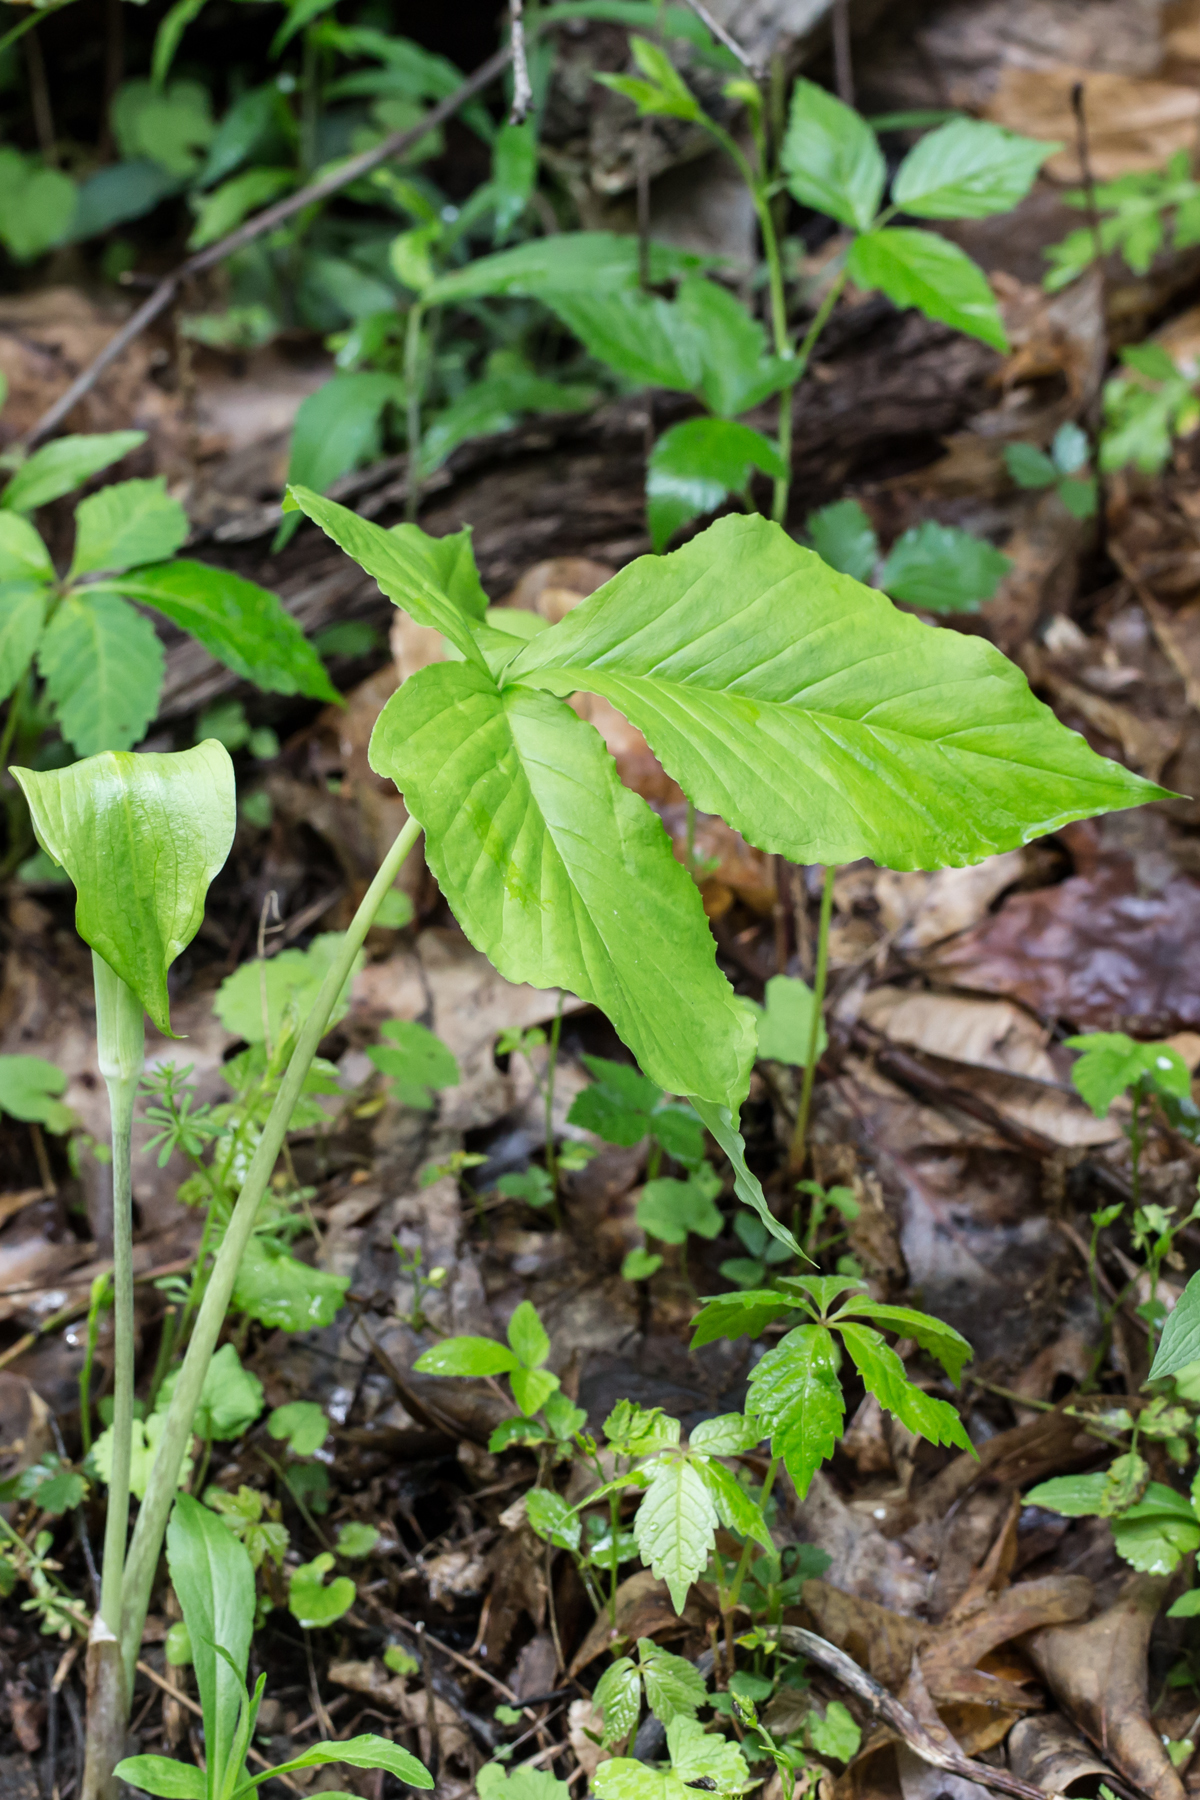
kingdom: Plantae
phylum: Tracheophyta
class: Liliopsida
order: Alismatales
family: Araceae
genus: Arisaema
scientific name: Arisaema triphyllum
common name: Jack-in-the-pulpit
